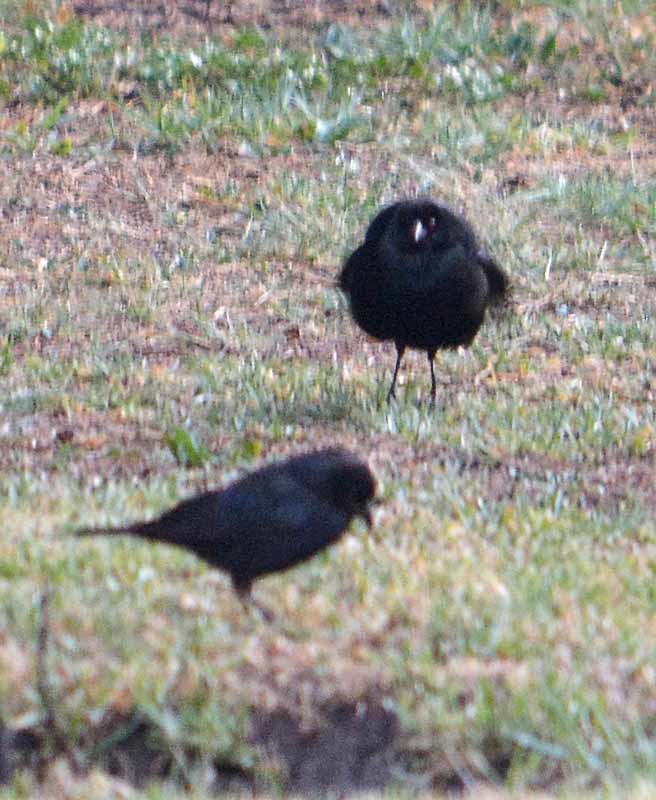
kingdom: Animalia
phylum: Chordata
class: Aves
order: Passeriformes
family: Icteridae
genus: Molothrus
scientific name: Molothrus aeneus
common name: Bronzed cowbird
